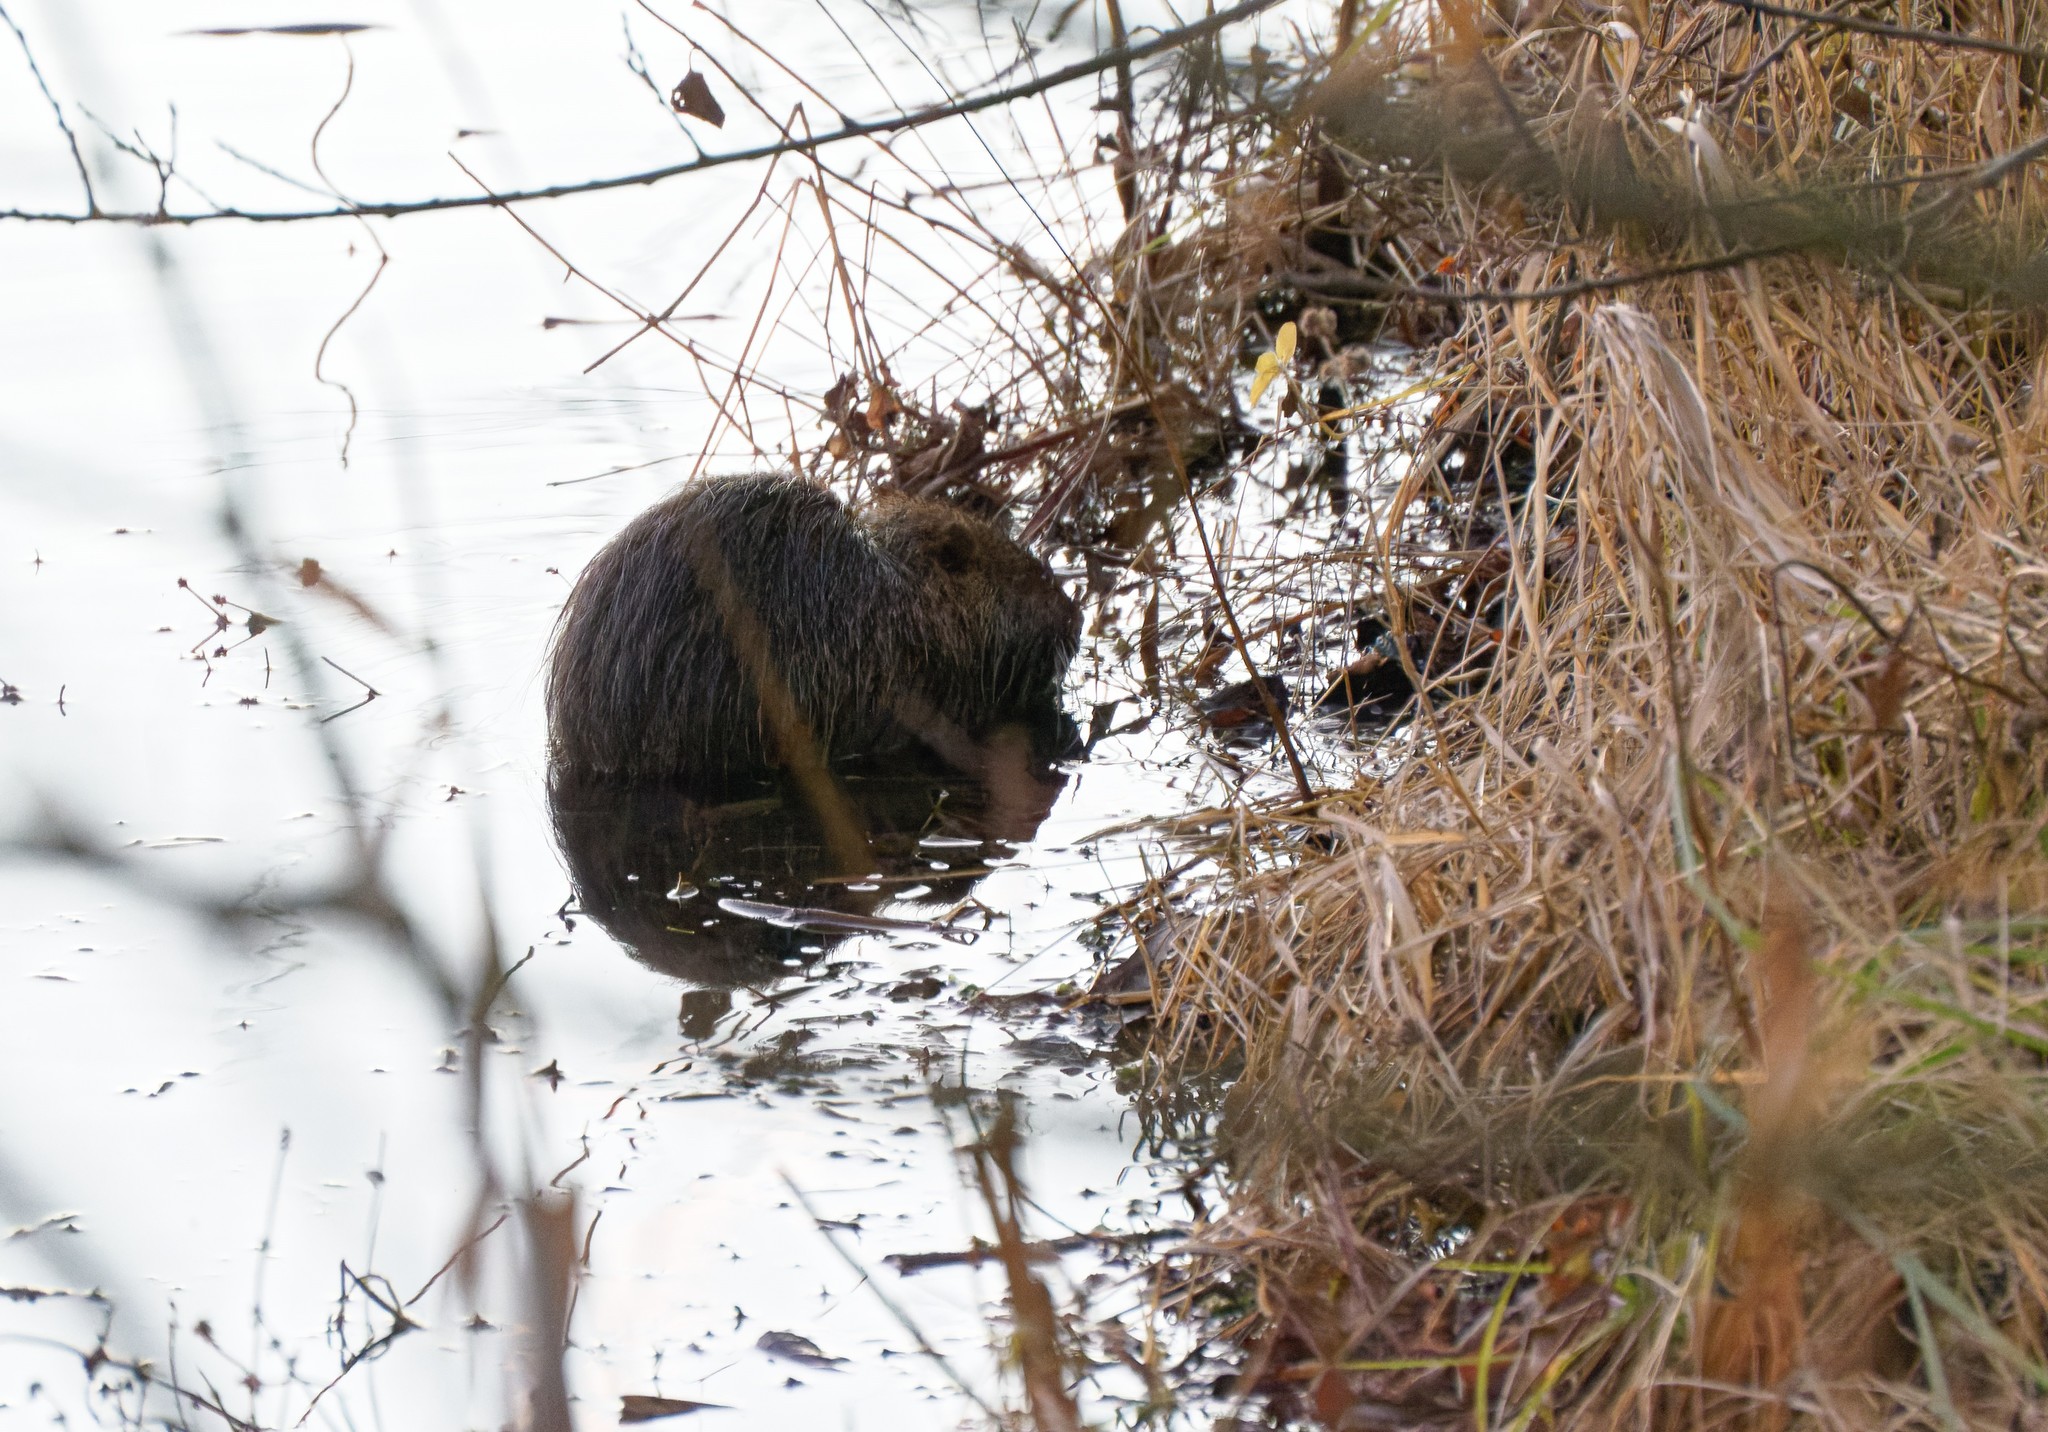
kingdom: Animalia
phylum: Chordata
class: Mammalia
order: Rodentia
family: Myocastoridae
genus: Myocastor
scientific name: Myocastor coypus
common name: Coypu
